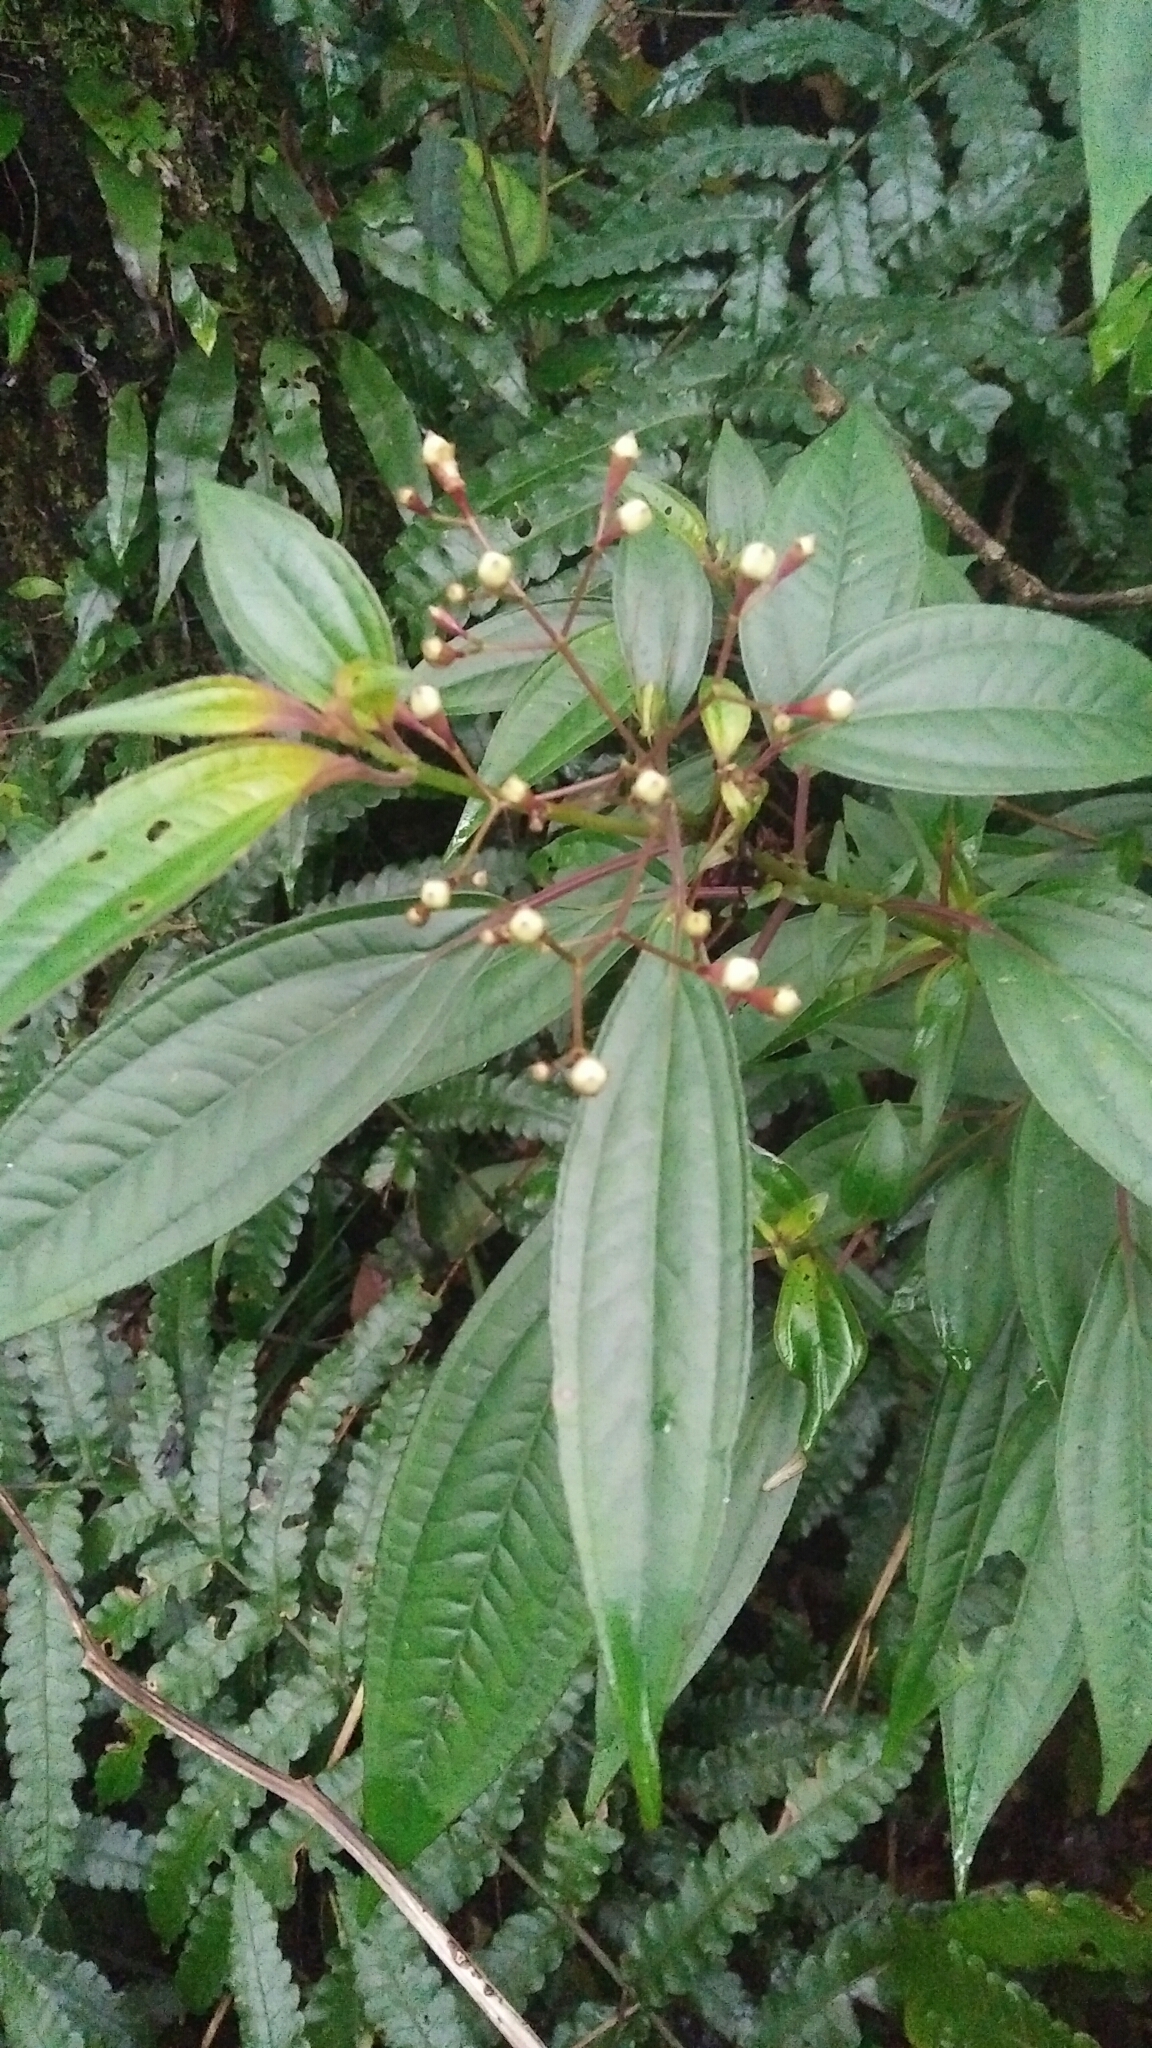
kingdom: Plantae
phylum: Tracheophyta
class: Magnoliopsida
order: Myrtales
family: Melastomataceae
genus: Bredia
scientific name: Bredia oldhamii
